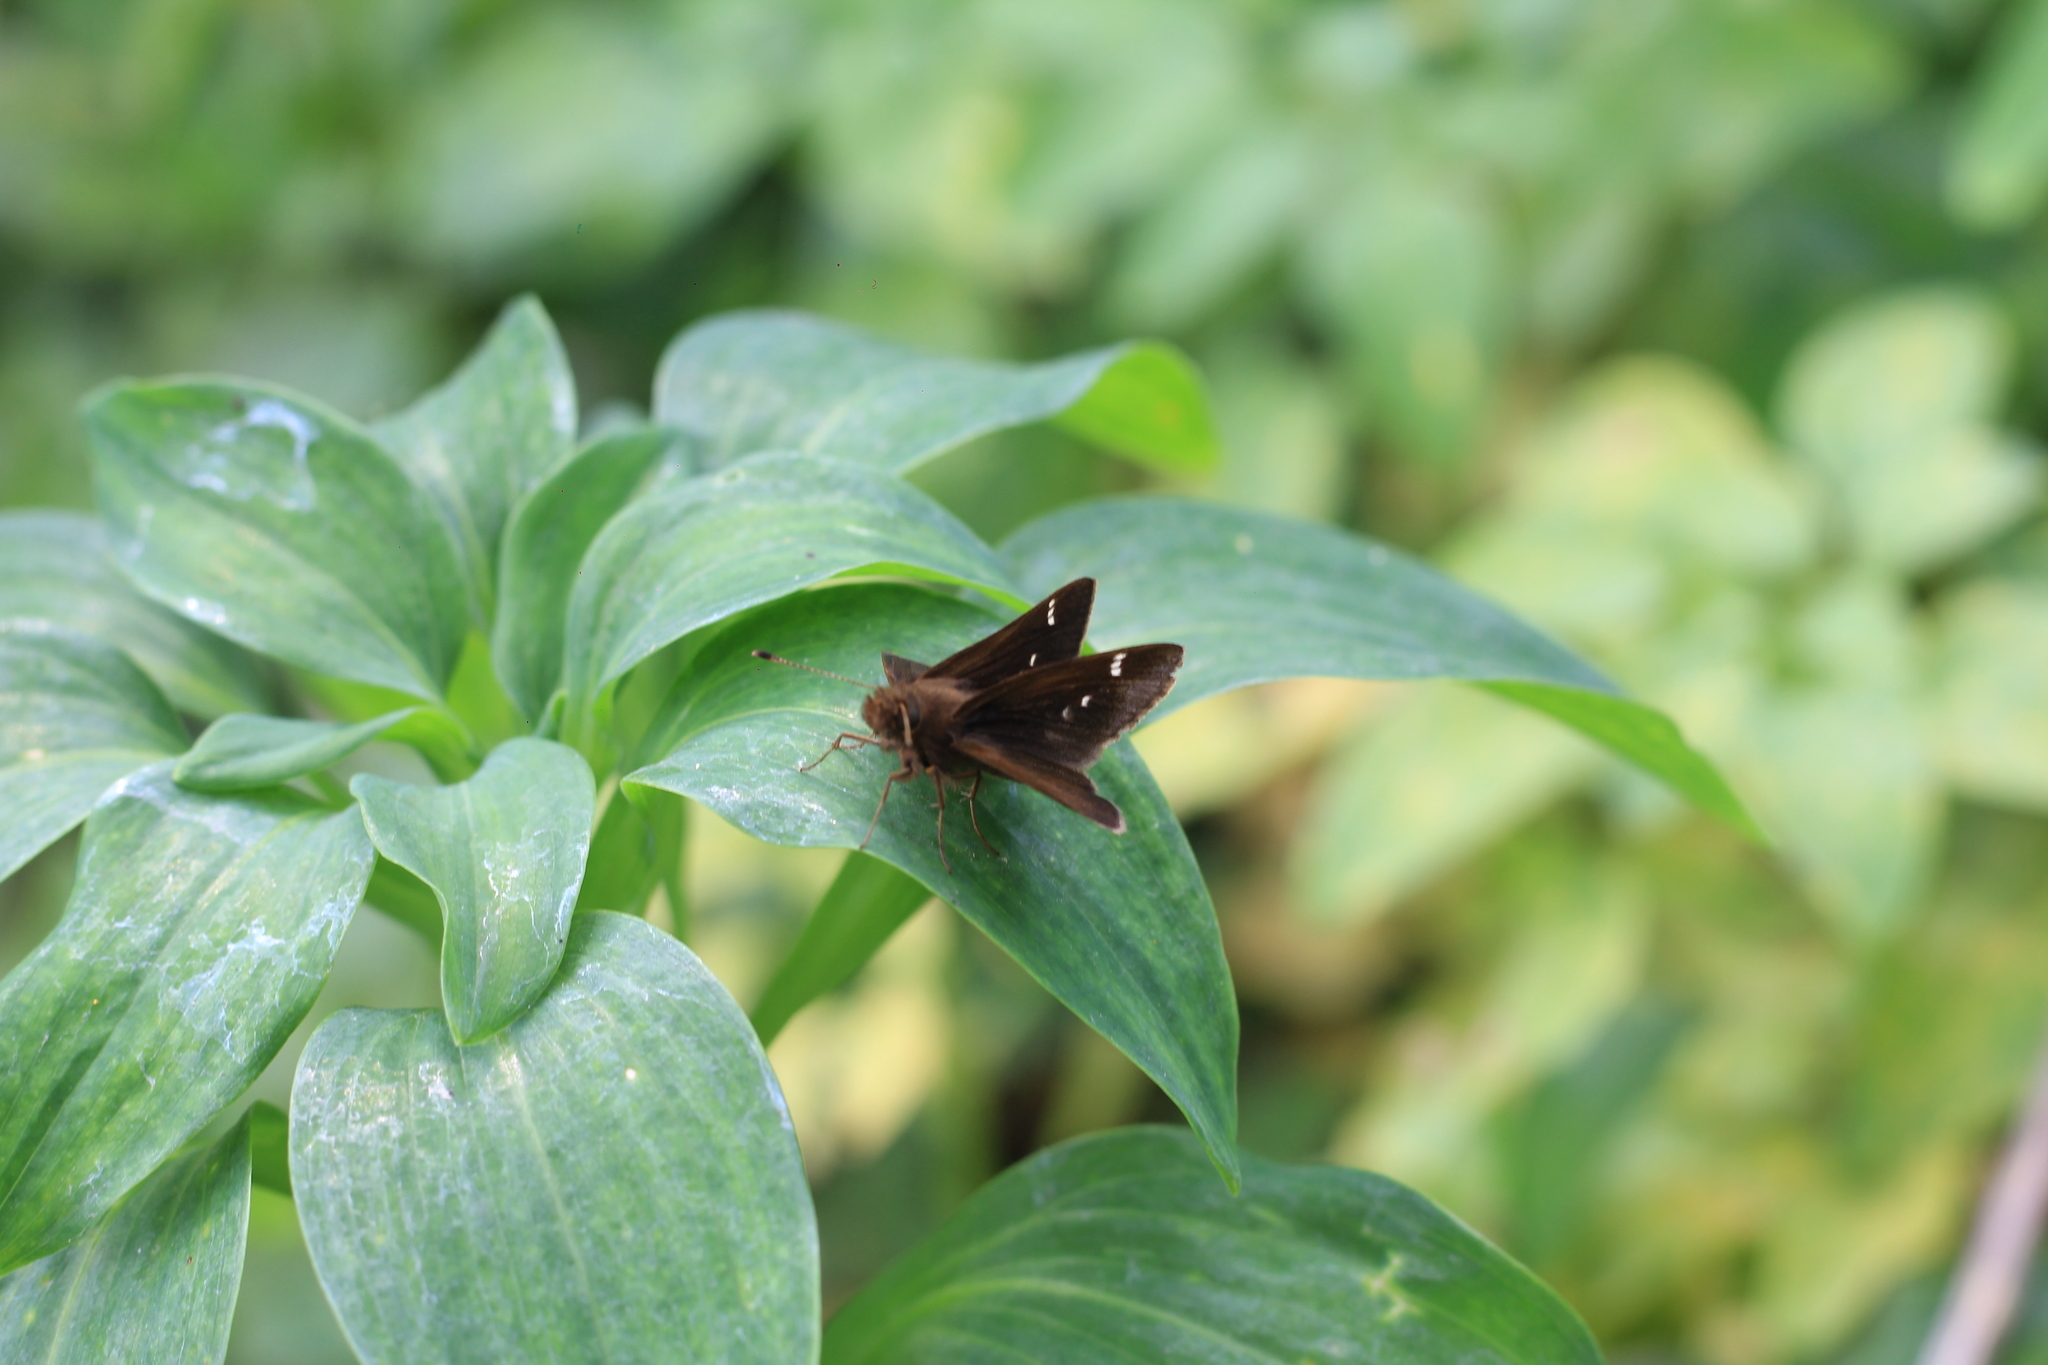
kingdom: Animalia
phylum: Arthropoda
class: Insecta
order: Lepidoptera
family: Hesperiidae
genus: Cymaenes
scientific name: Cymaenes
